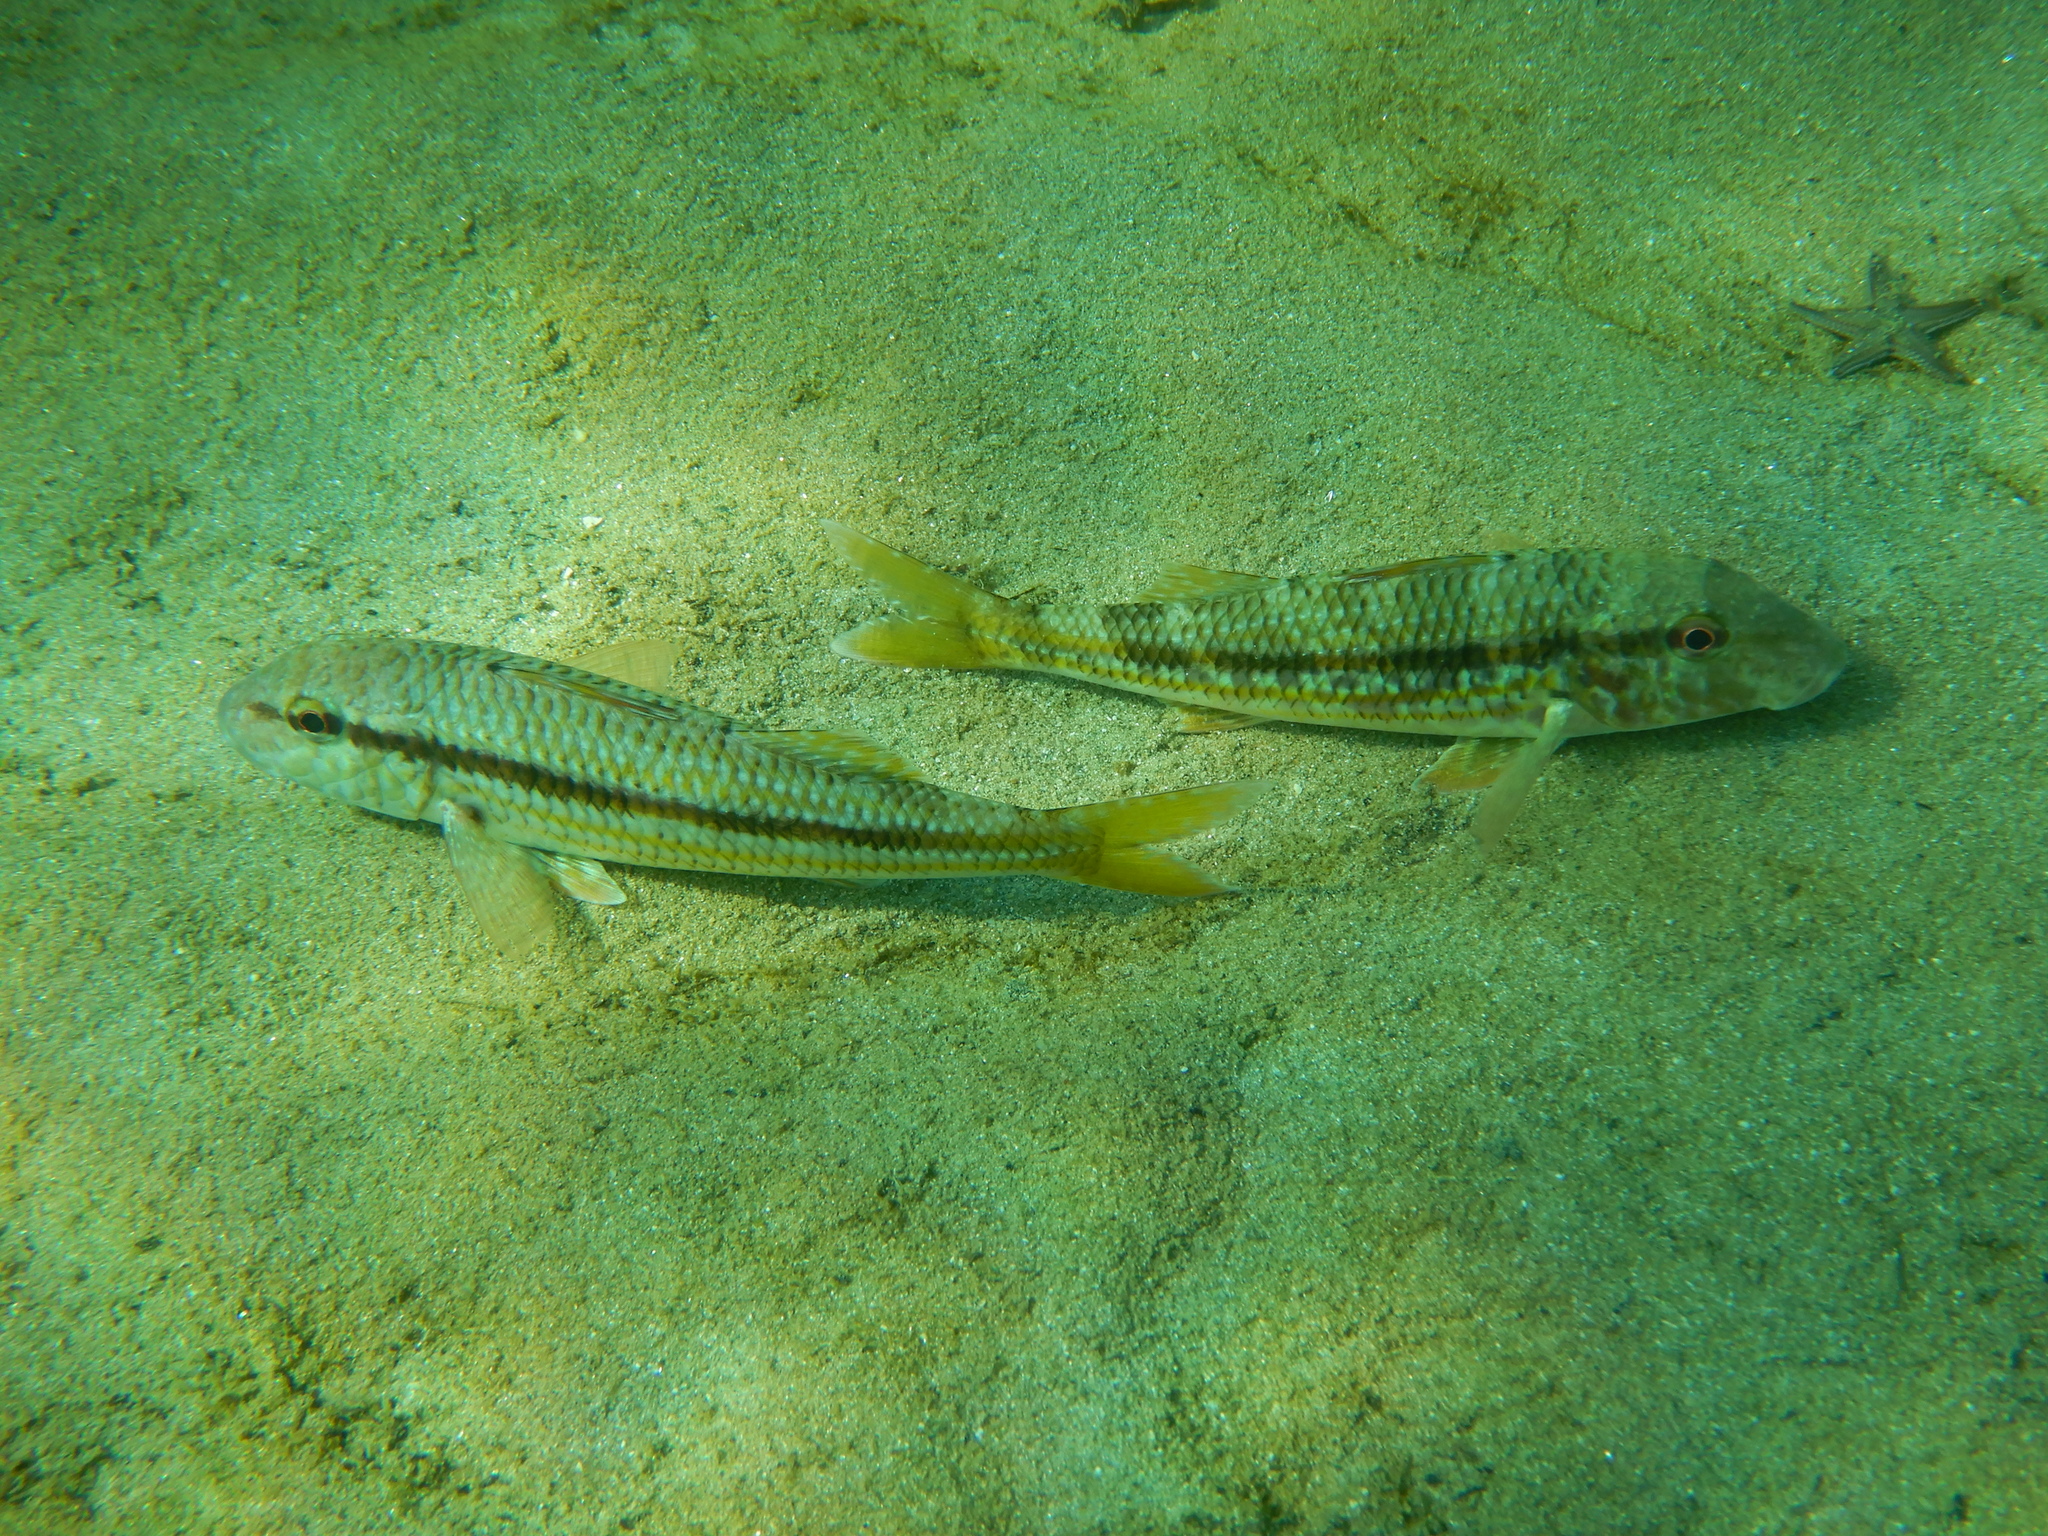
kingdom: Animalia
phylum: Chordata
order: Perciformes
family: Mullidae
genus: Mullus
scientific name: Mullus surmuletus
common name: Red mullet
